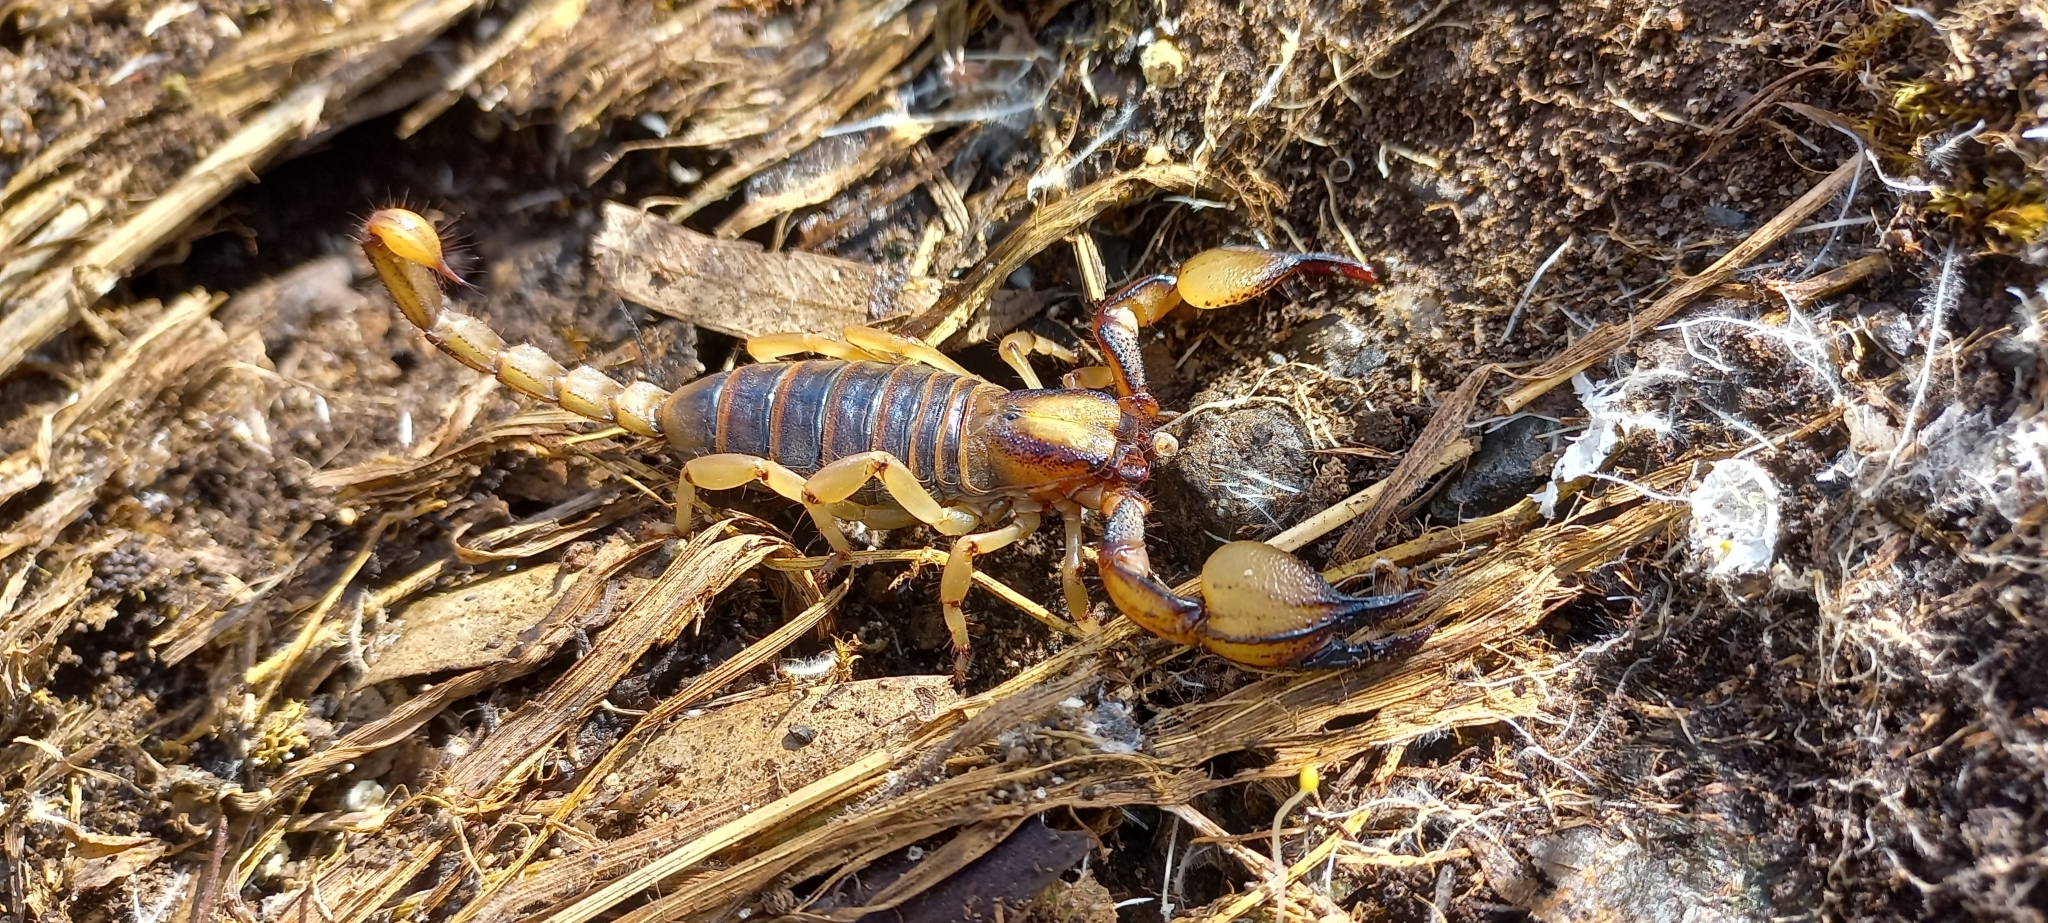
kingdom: Animalia
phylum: Arthropoda
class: Arachnida
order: Scorpiones
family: Scorpionidae
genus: Opistophthalmus
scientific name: Opistophthalmus capensis
